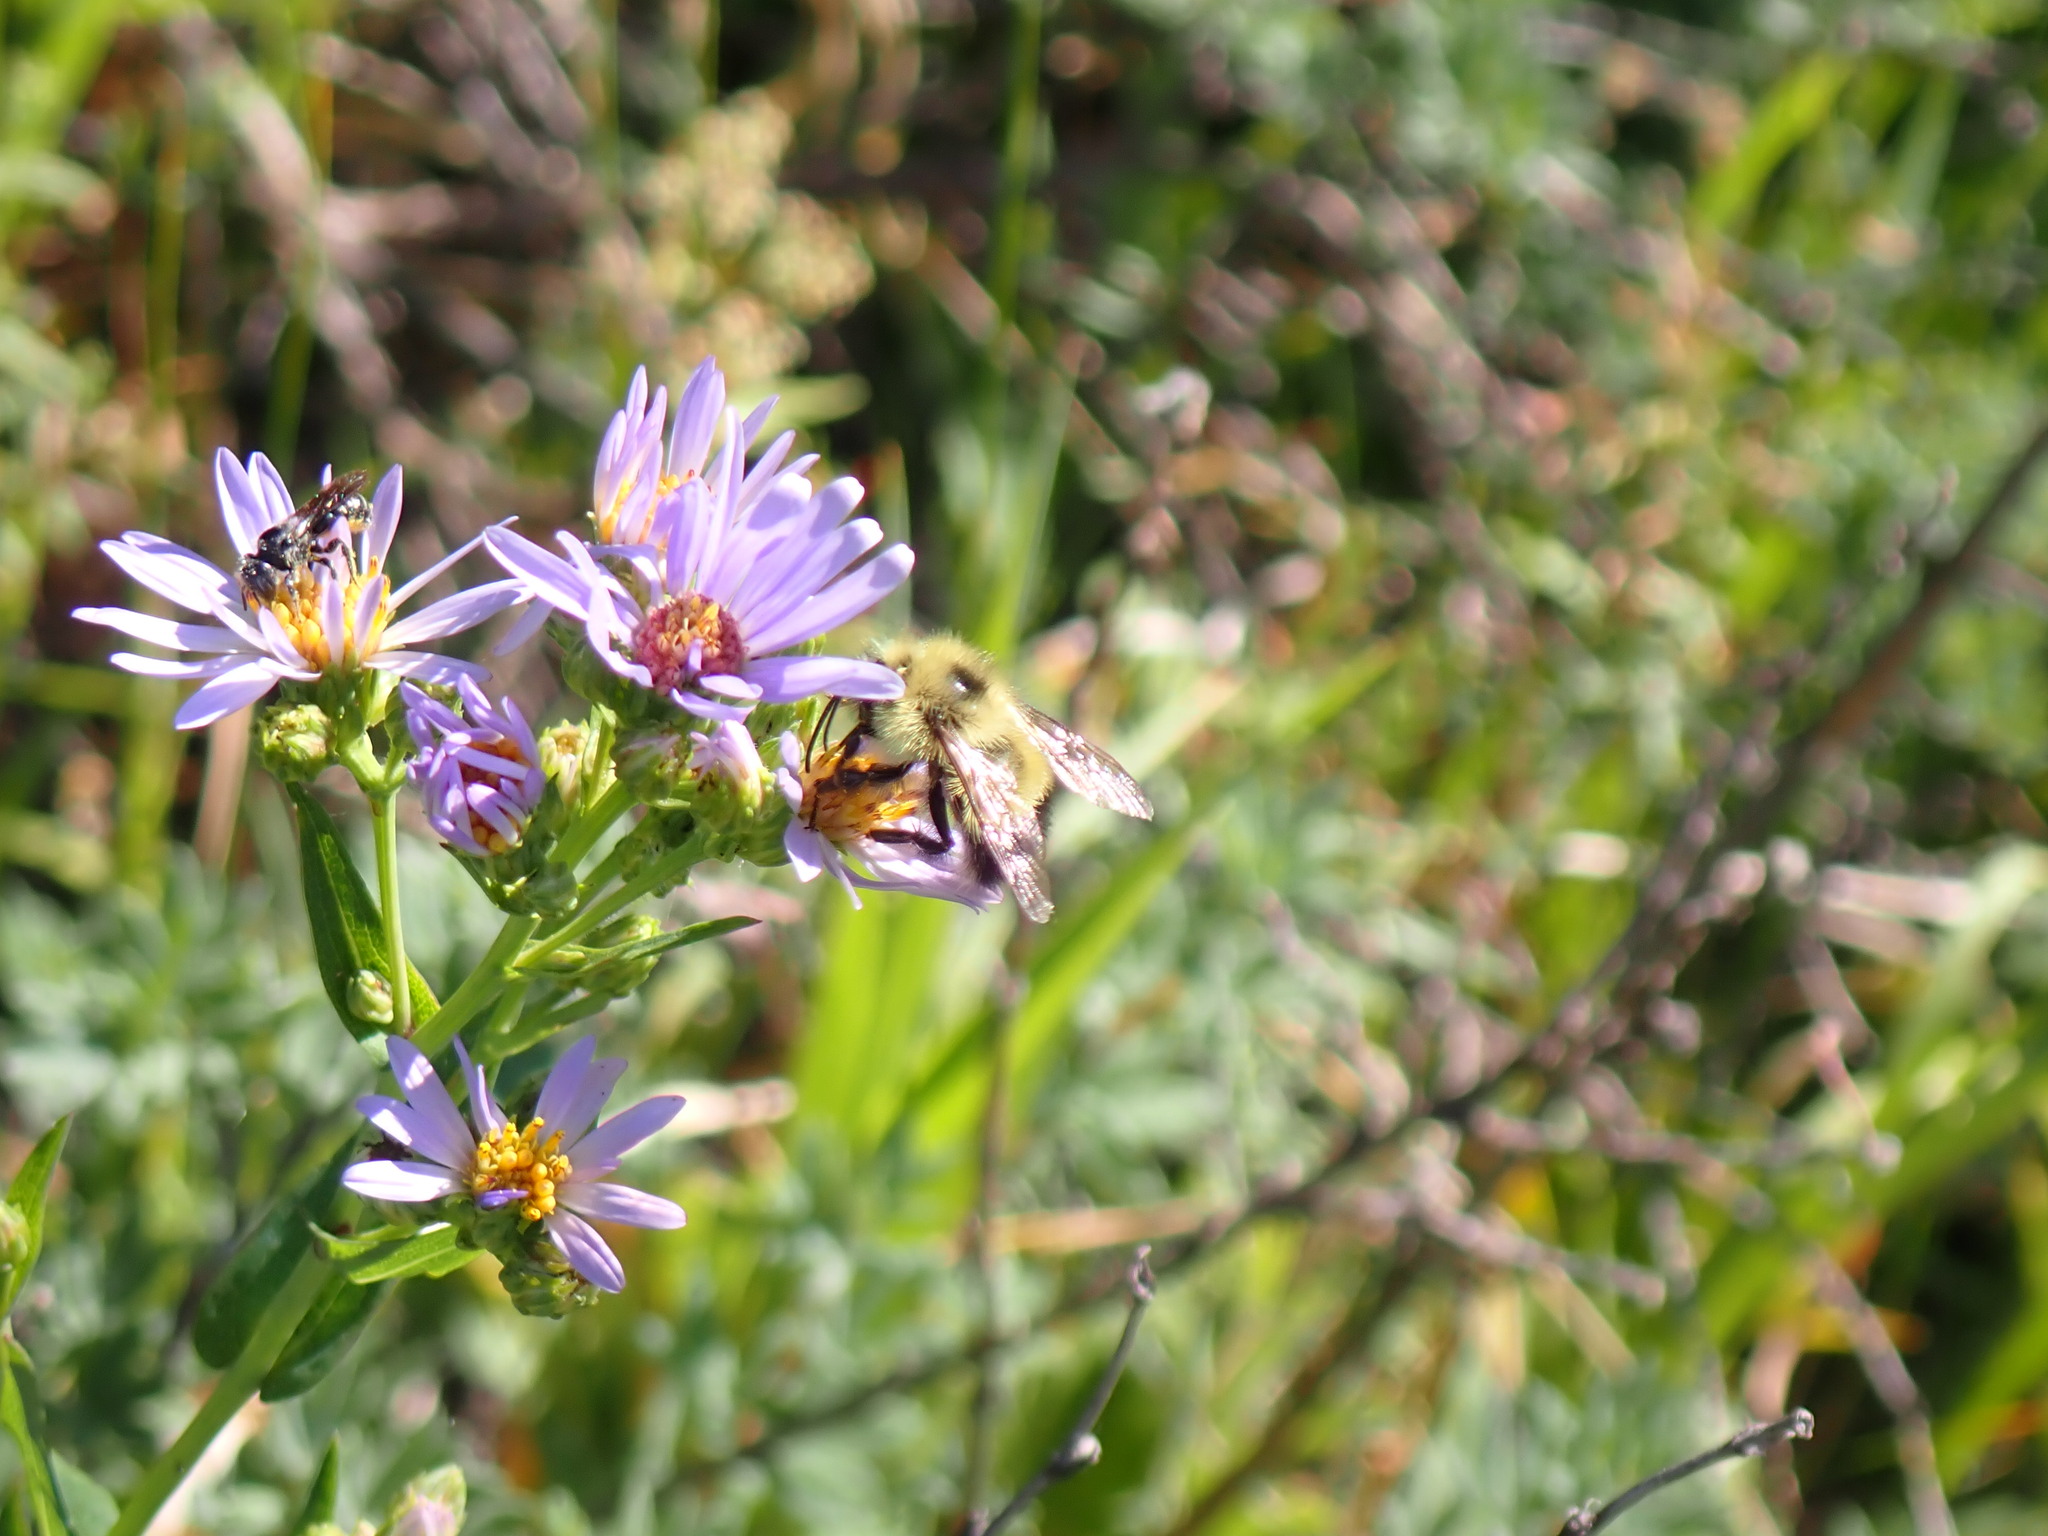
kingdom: Animalia
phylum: Arthropoda
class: Insecta
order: Hymenoptera
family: Apidae
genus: Bombus
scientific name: Bombus vagans
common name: Half-black bumble bee
